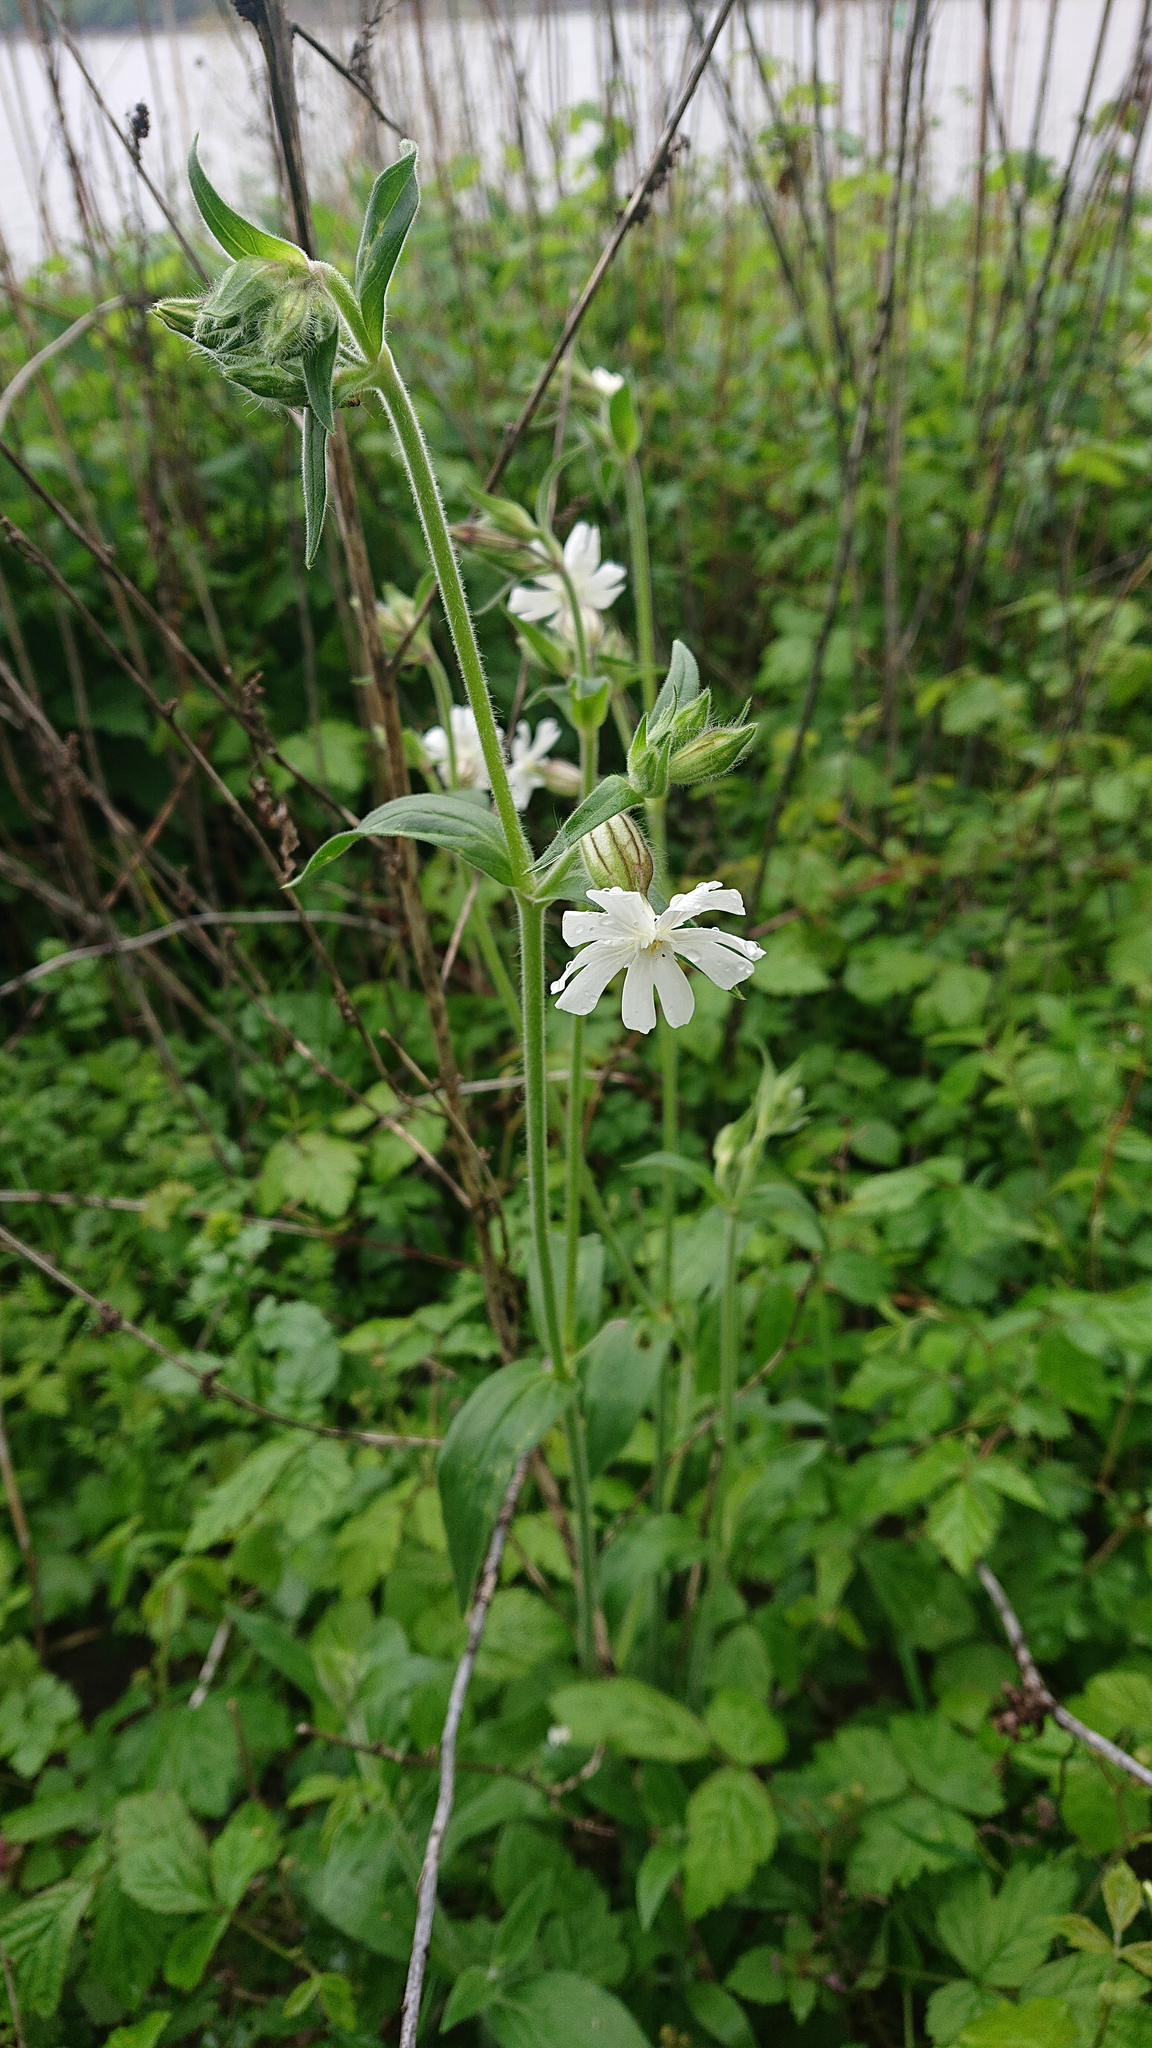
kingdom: Plantae
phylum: Tracheophyta
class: Magnoliopsida
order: Caryophyllales
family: Caryophyllaceae
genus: Silene
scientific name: Silene latifolia
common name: White campion
